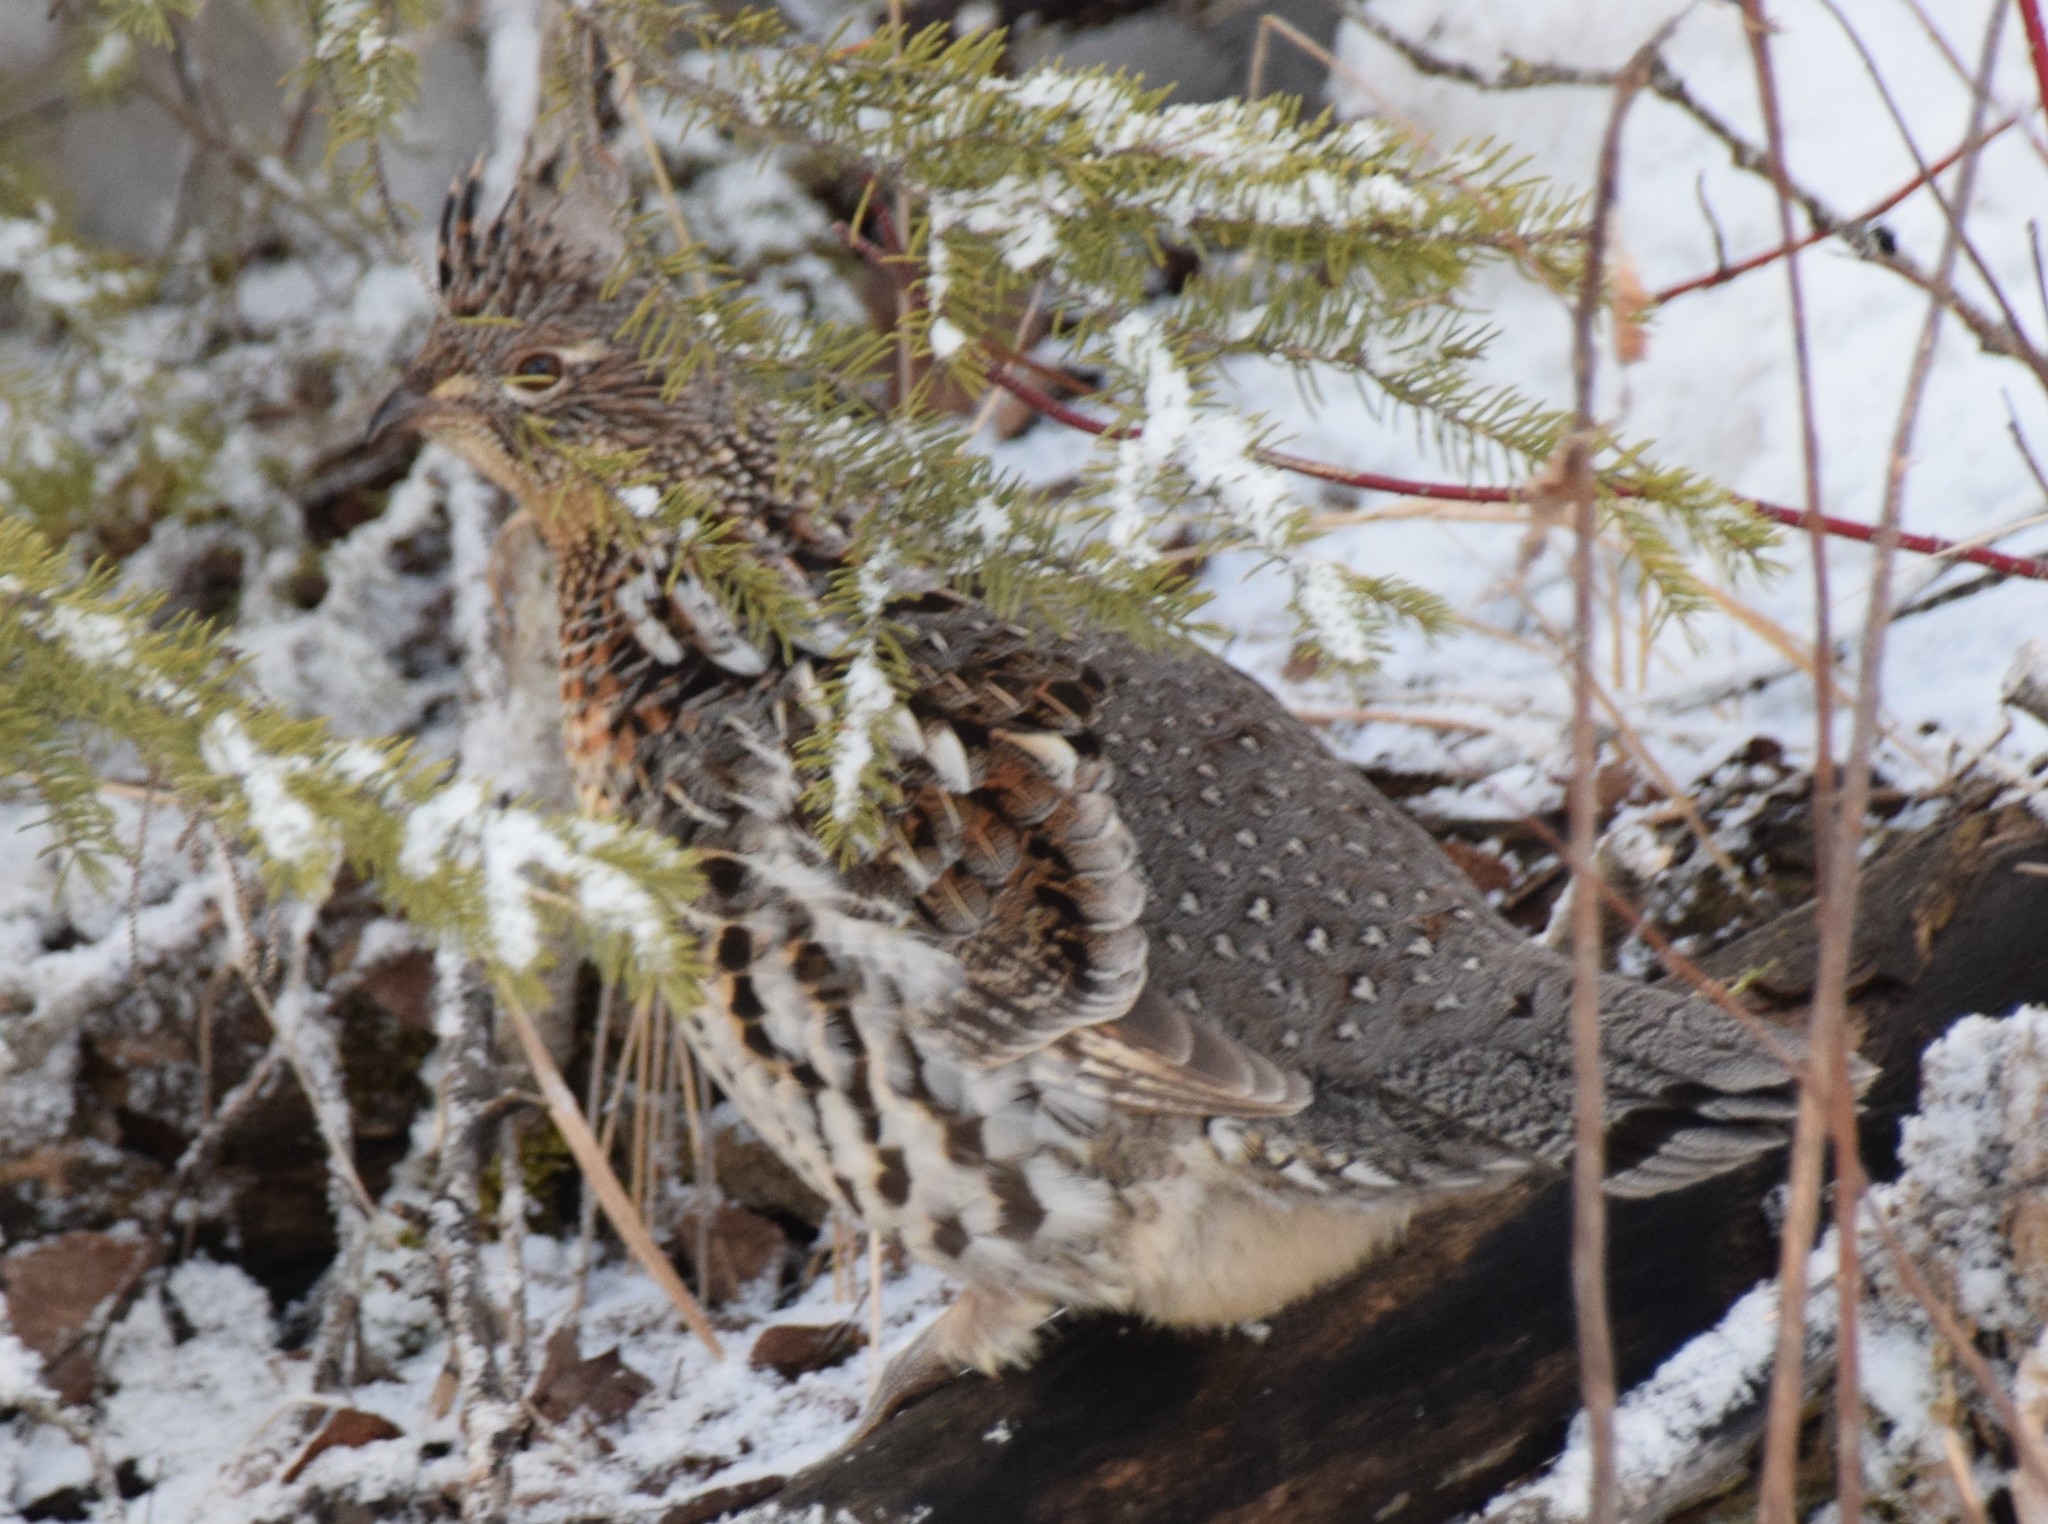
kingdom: Animalia
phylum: Chordata
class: Aves
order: Galliformes
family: Phasianidae
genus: Bonasa
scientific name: Bonasa umbellus
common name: Ruffed grouse
